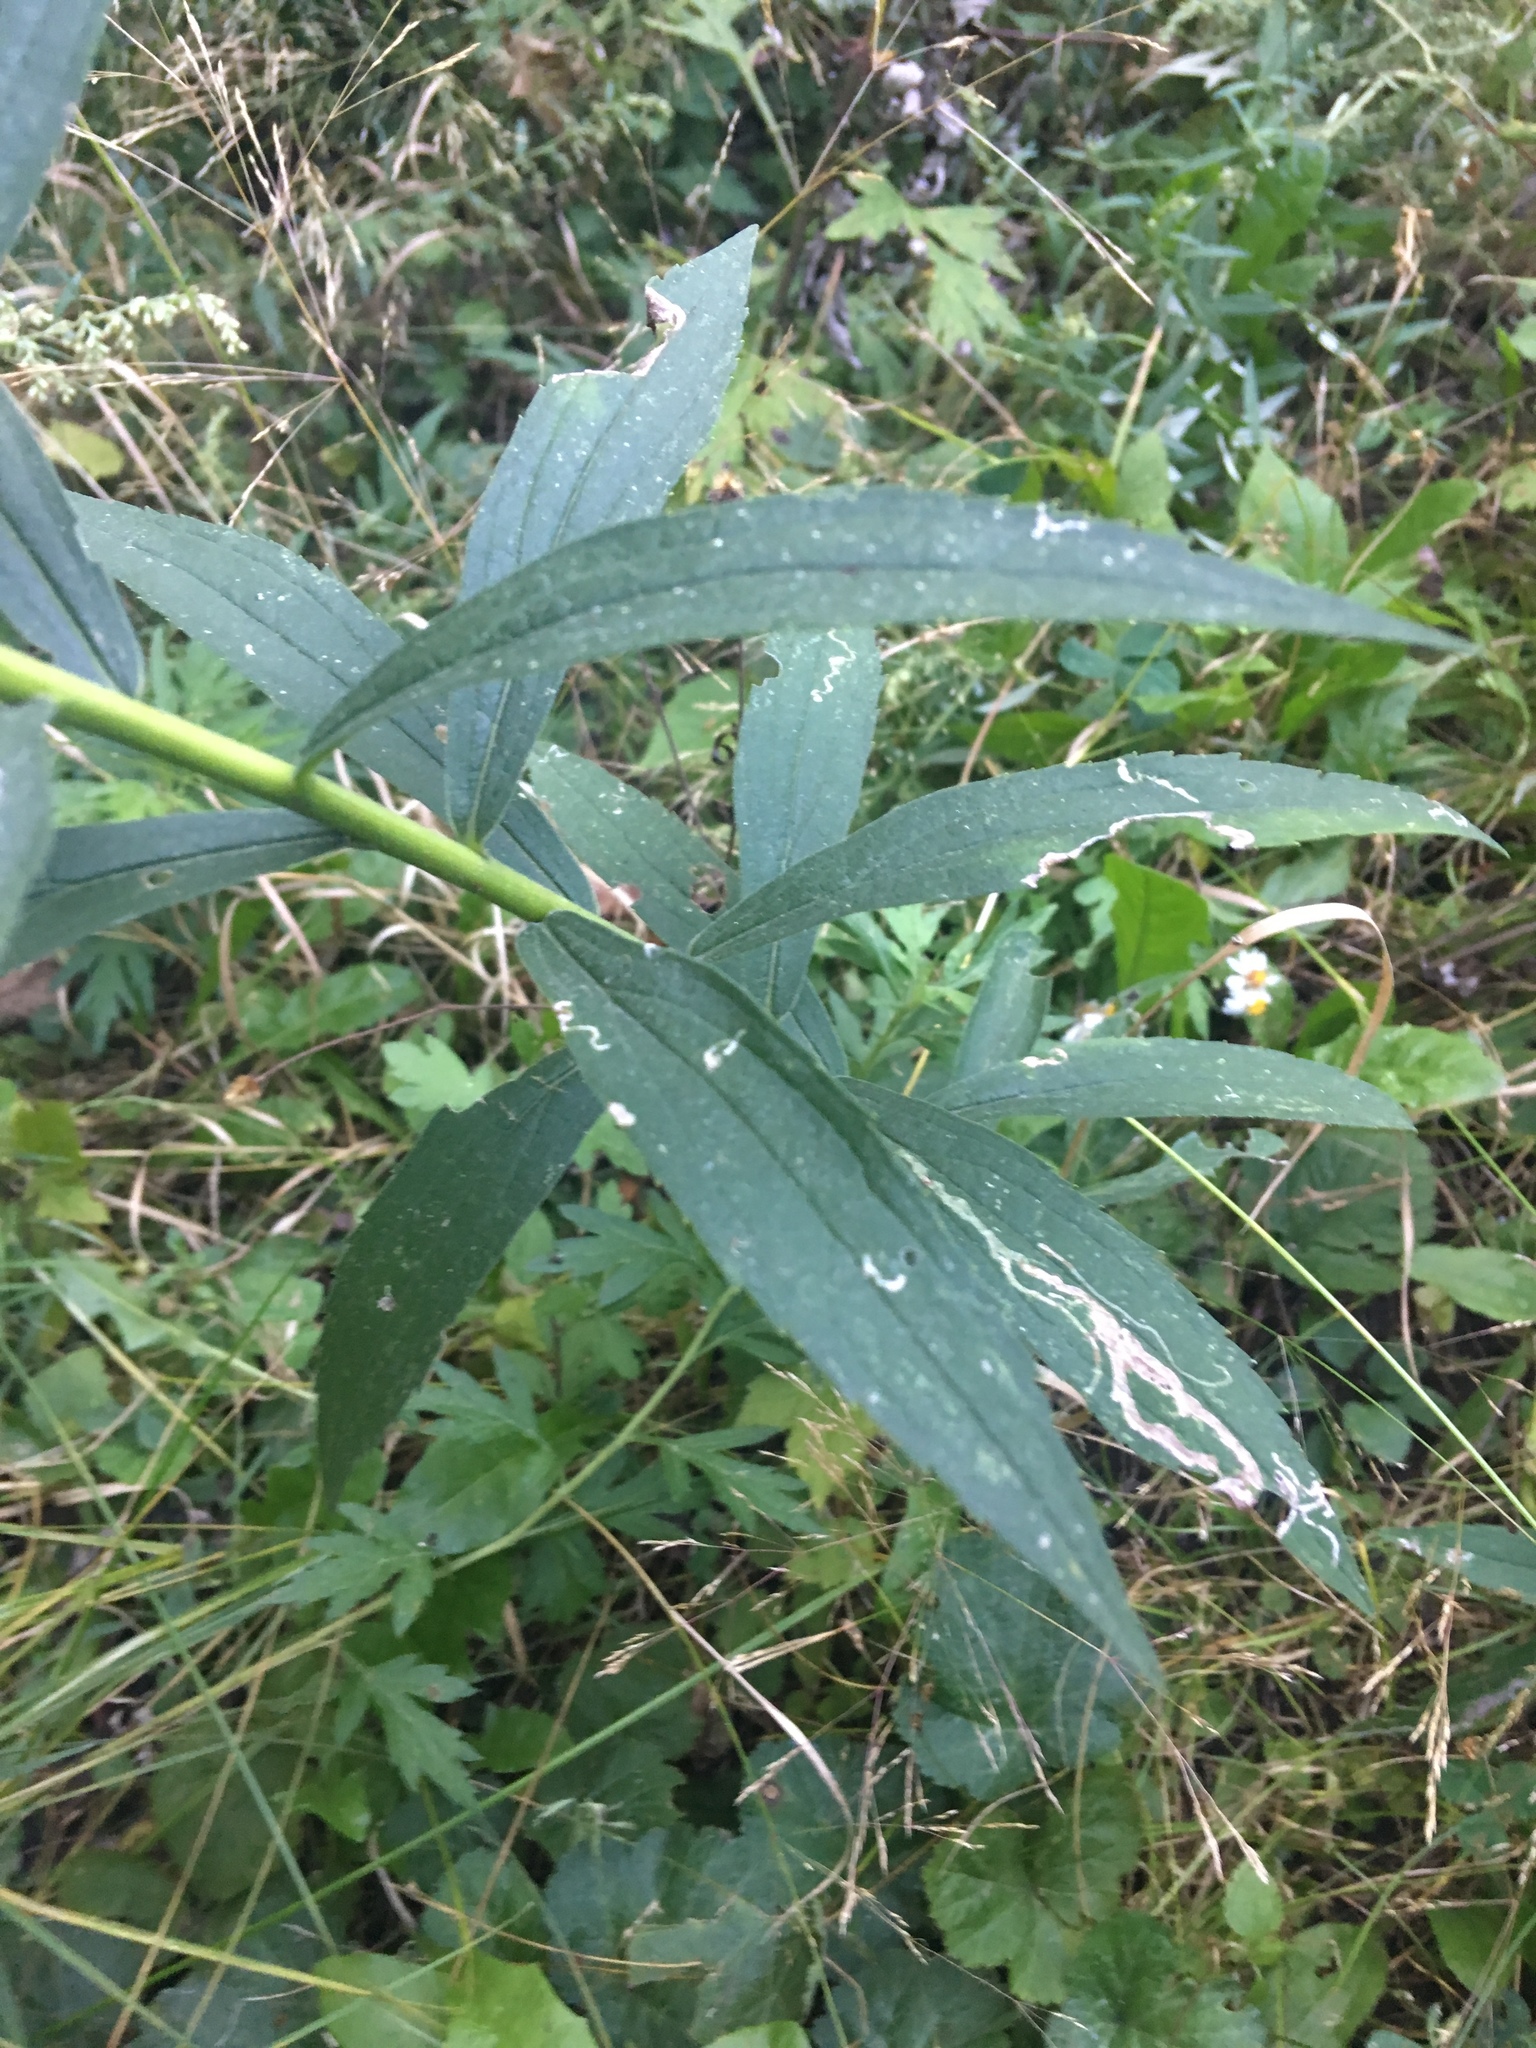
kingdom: Plantae
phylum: Tracheophyta
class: Magnoliopsida
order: Asterales
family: Asteraceae
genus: Solidago
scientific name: Solidago altissima
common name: Late goldenrod
